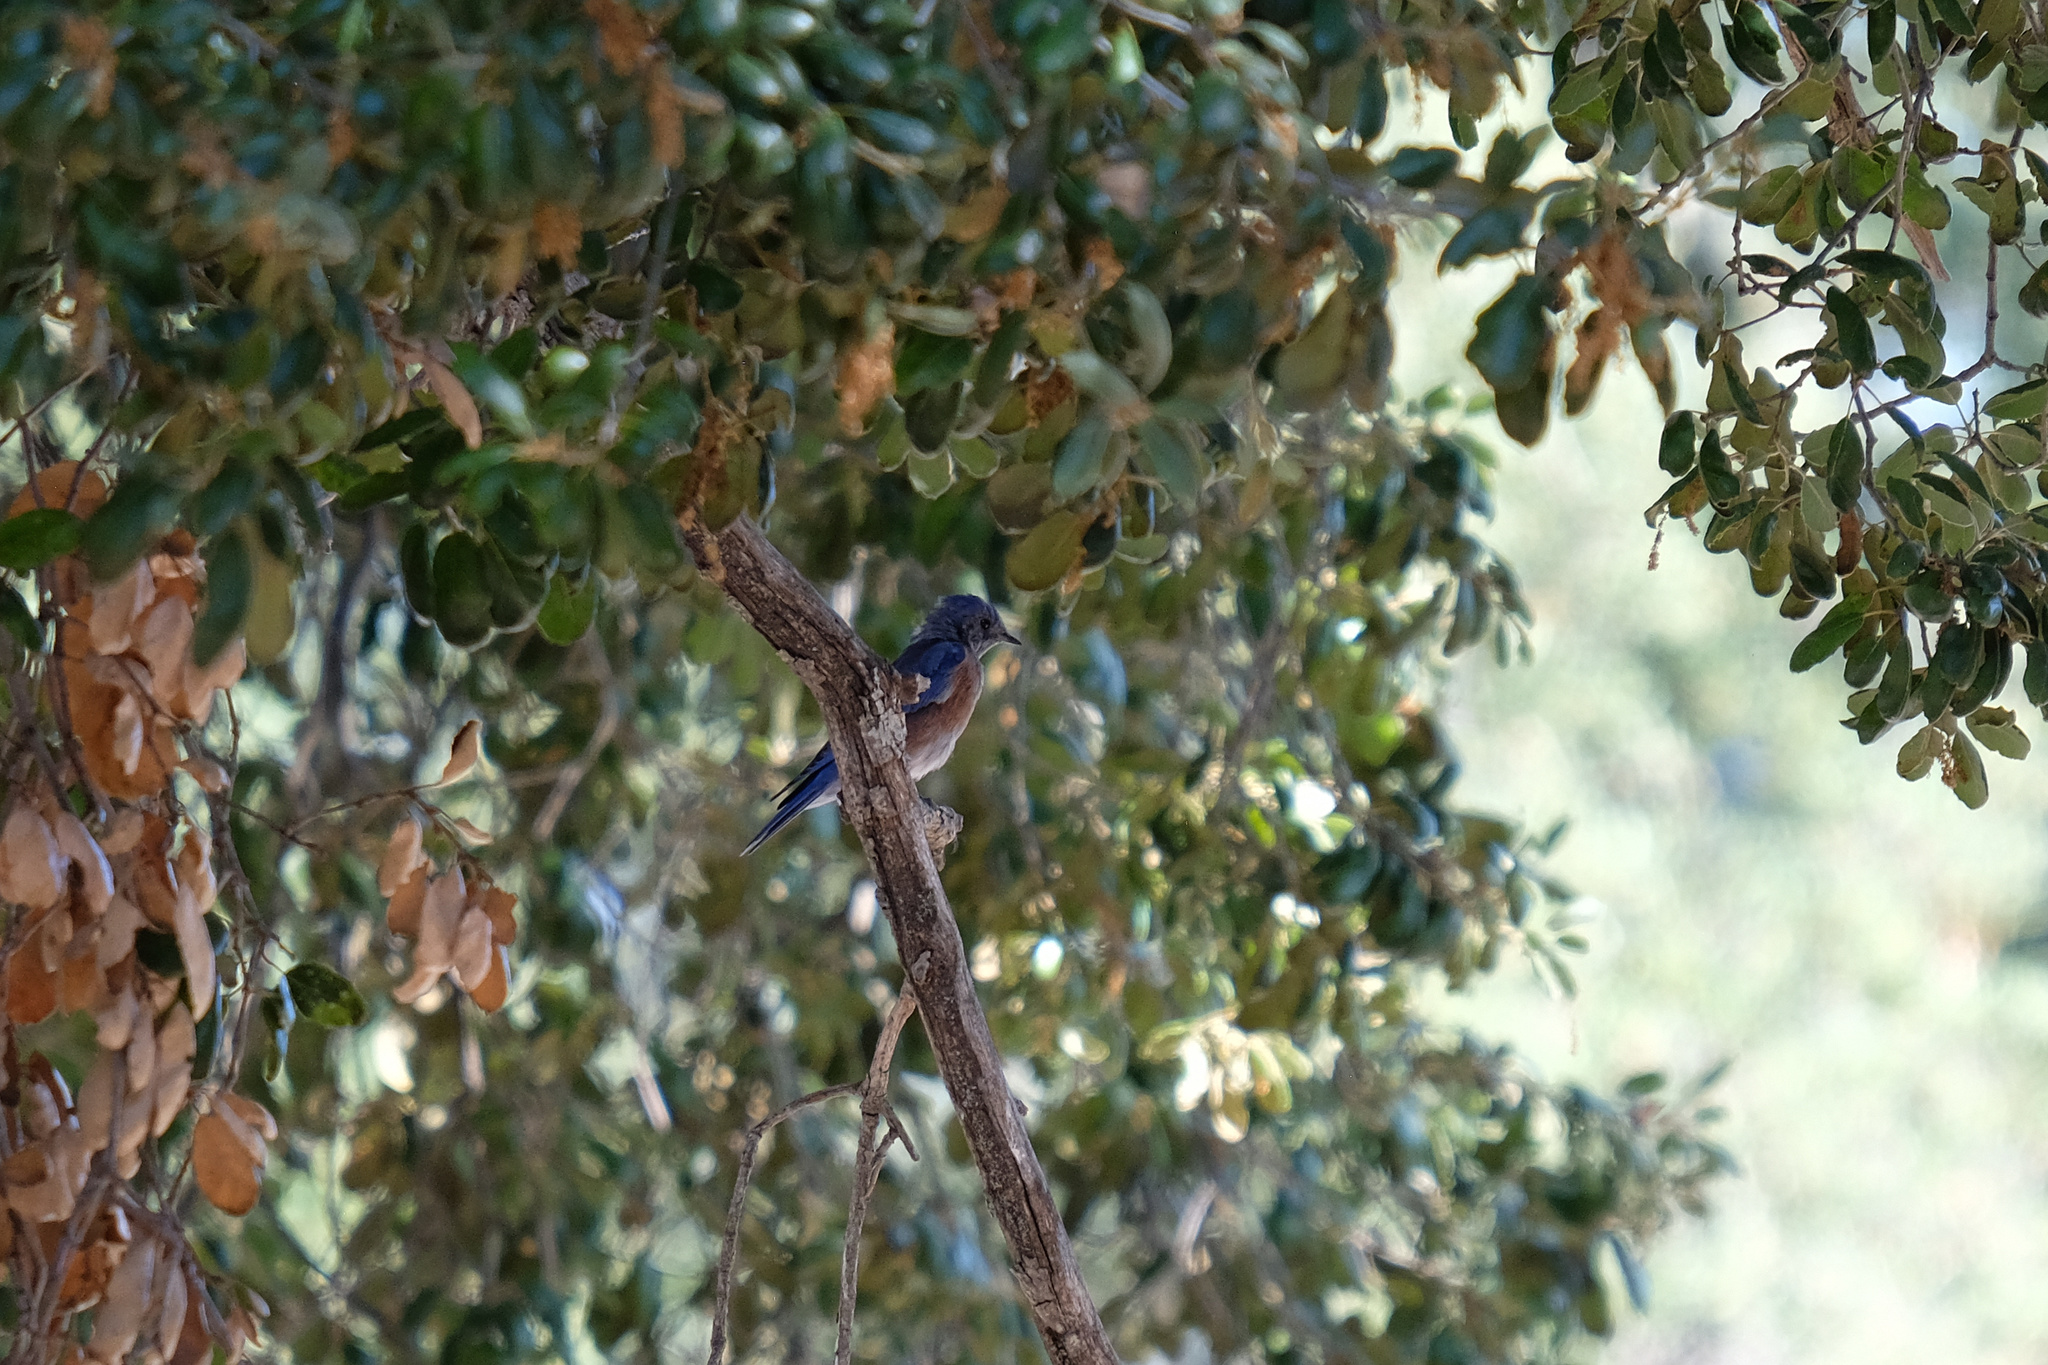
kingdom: Animalia
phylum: Chordata
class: Aves
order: Passeriformes
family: Turdidae
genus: Sialia
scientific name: Sialia mexicana
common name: Western bluebird
